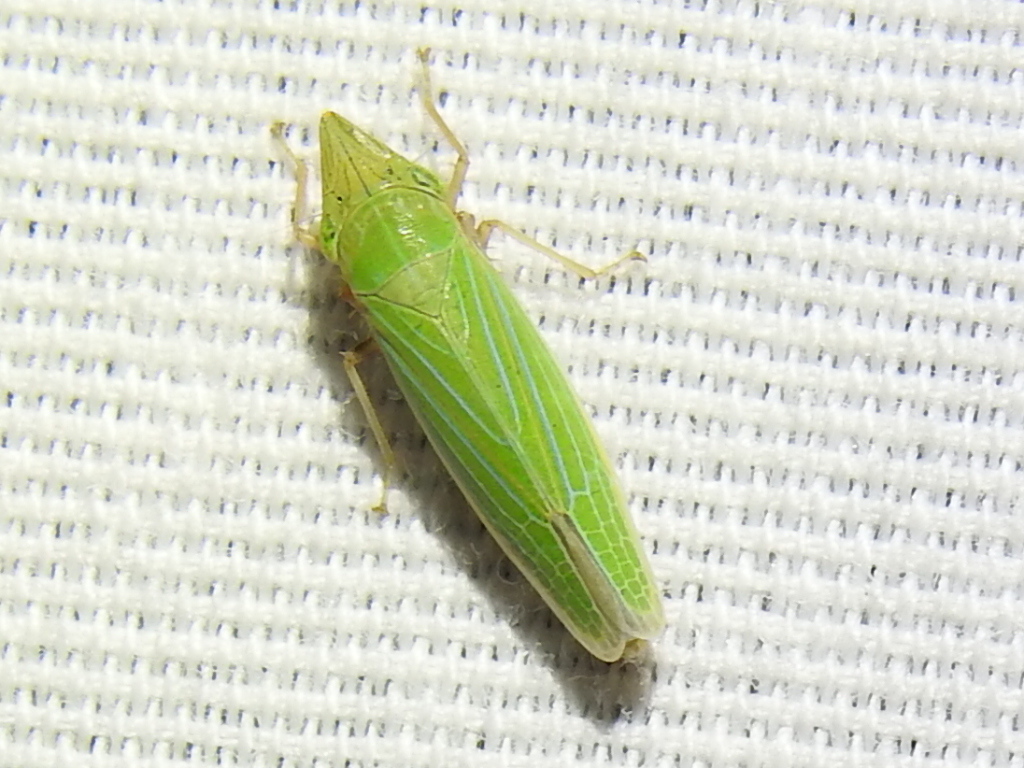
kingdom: Animalia
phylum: Arthropoda
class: Insecta
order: Hemiptera
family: Cicadellidae
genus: Draeculacephala
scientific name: Draeculacephala robinsoni
